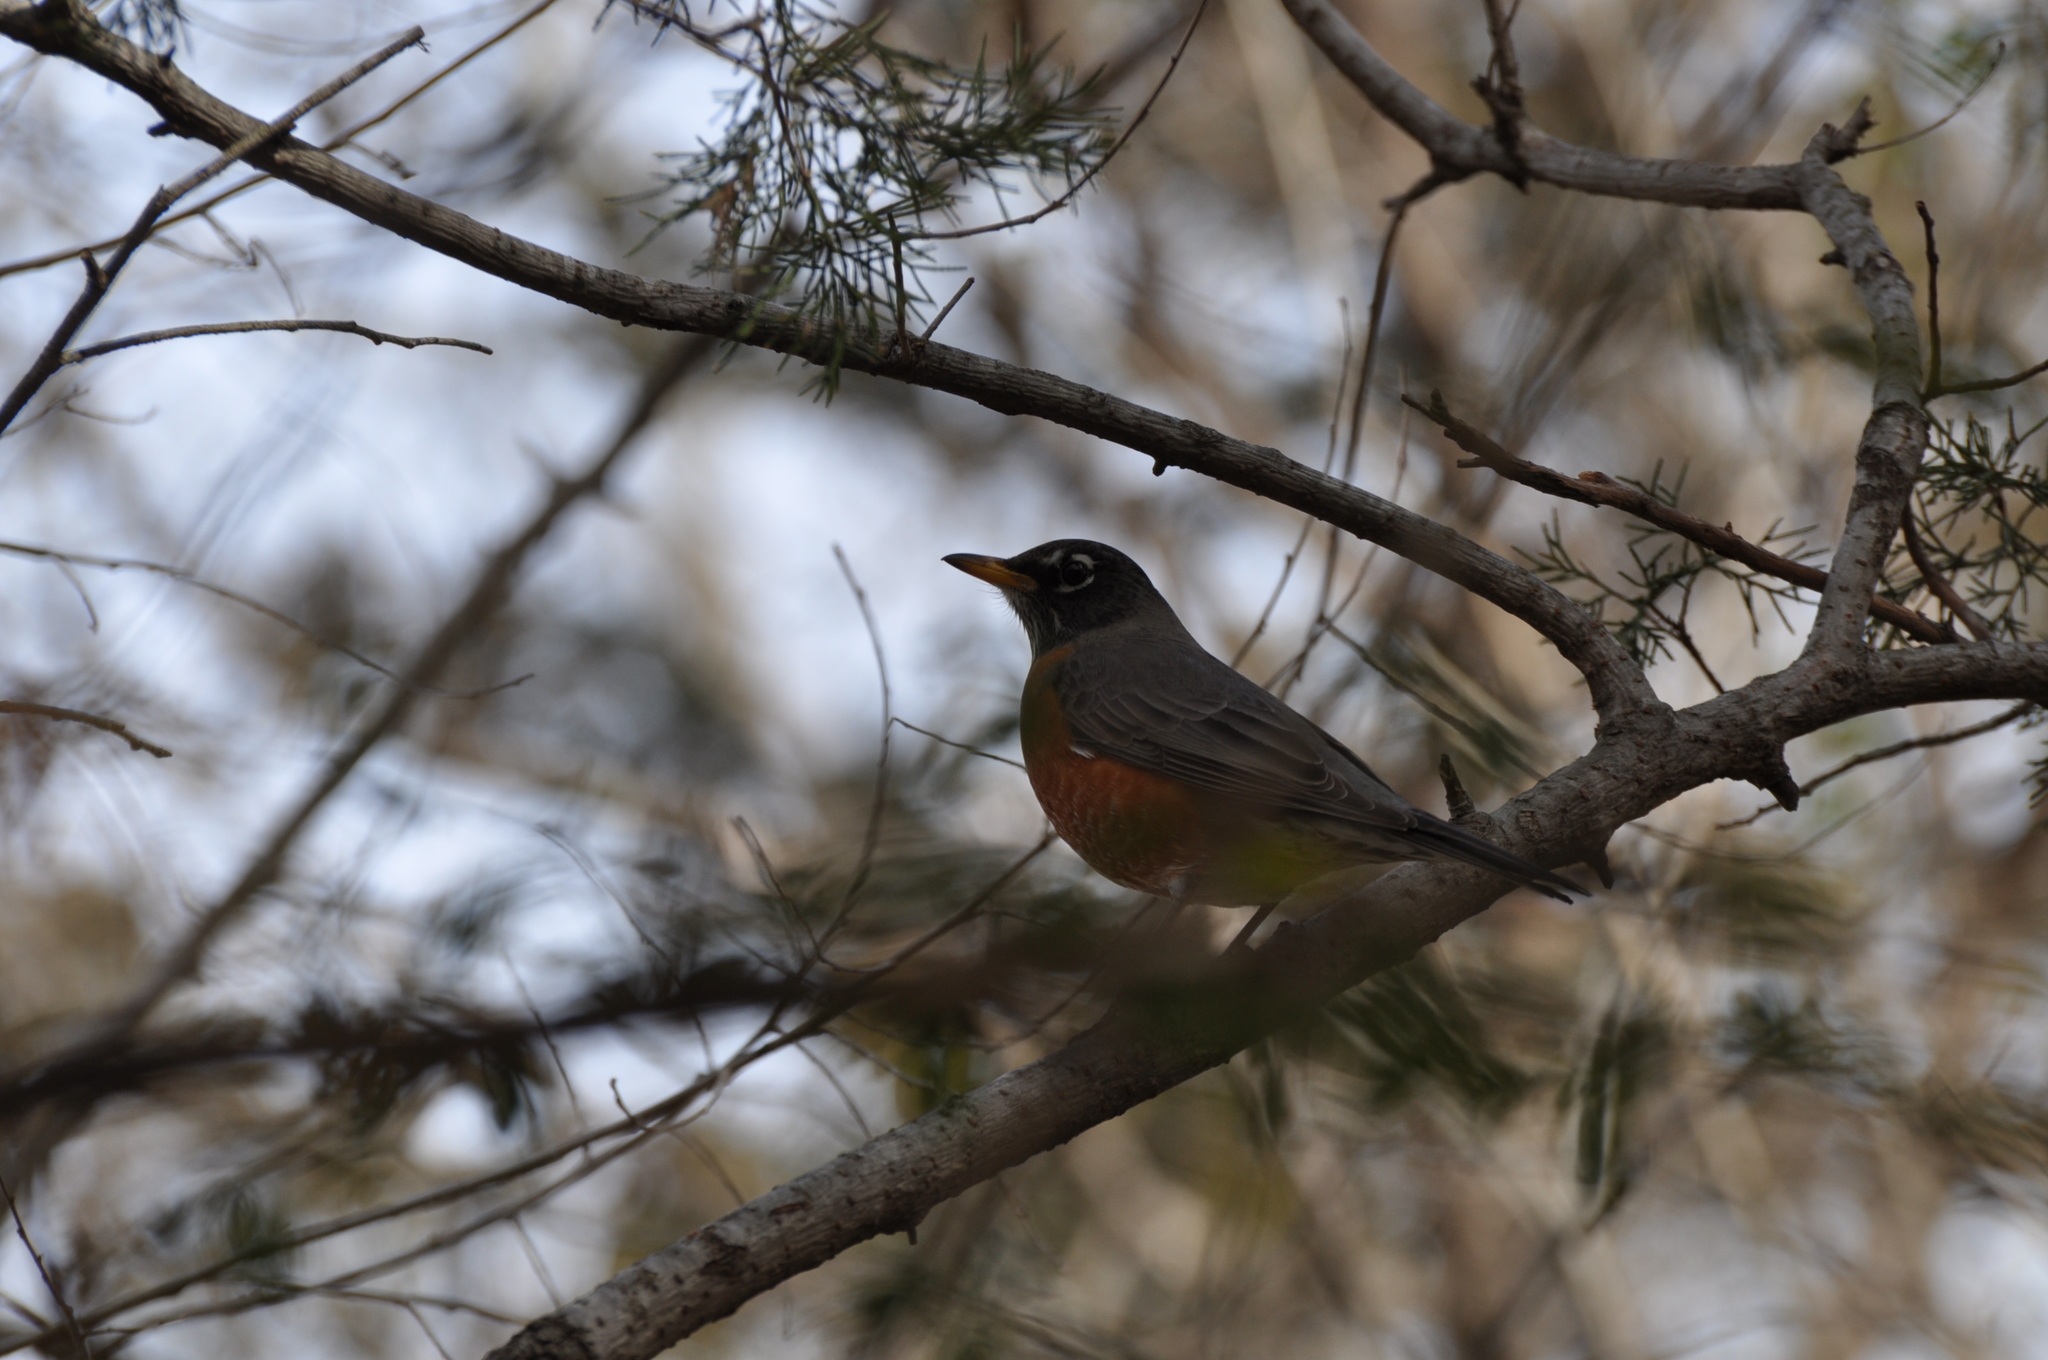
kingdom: Animalia
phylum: Chordata
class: Aves
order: Passeriformes
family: Turdidae
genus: Turdus
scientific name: Turdus migratorius
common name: American robin
